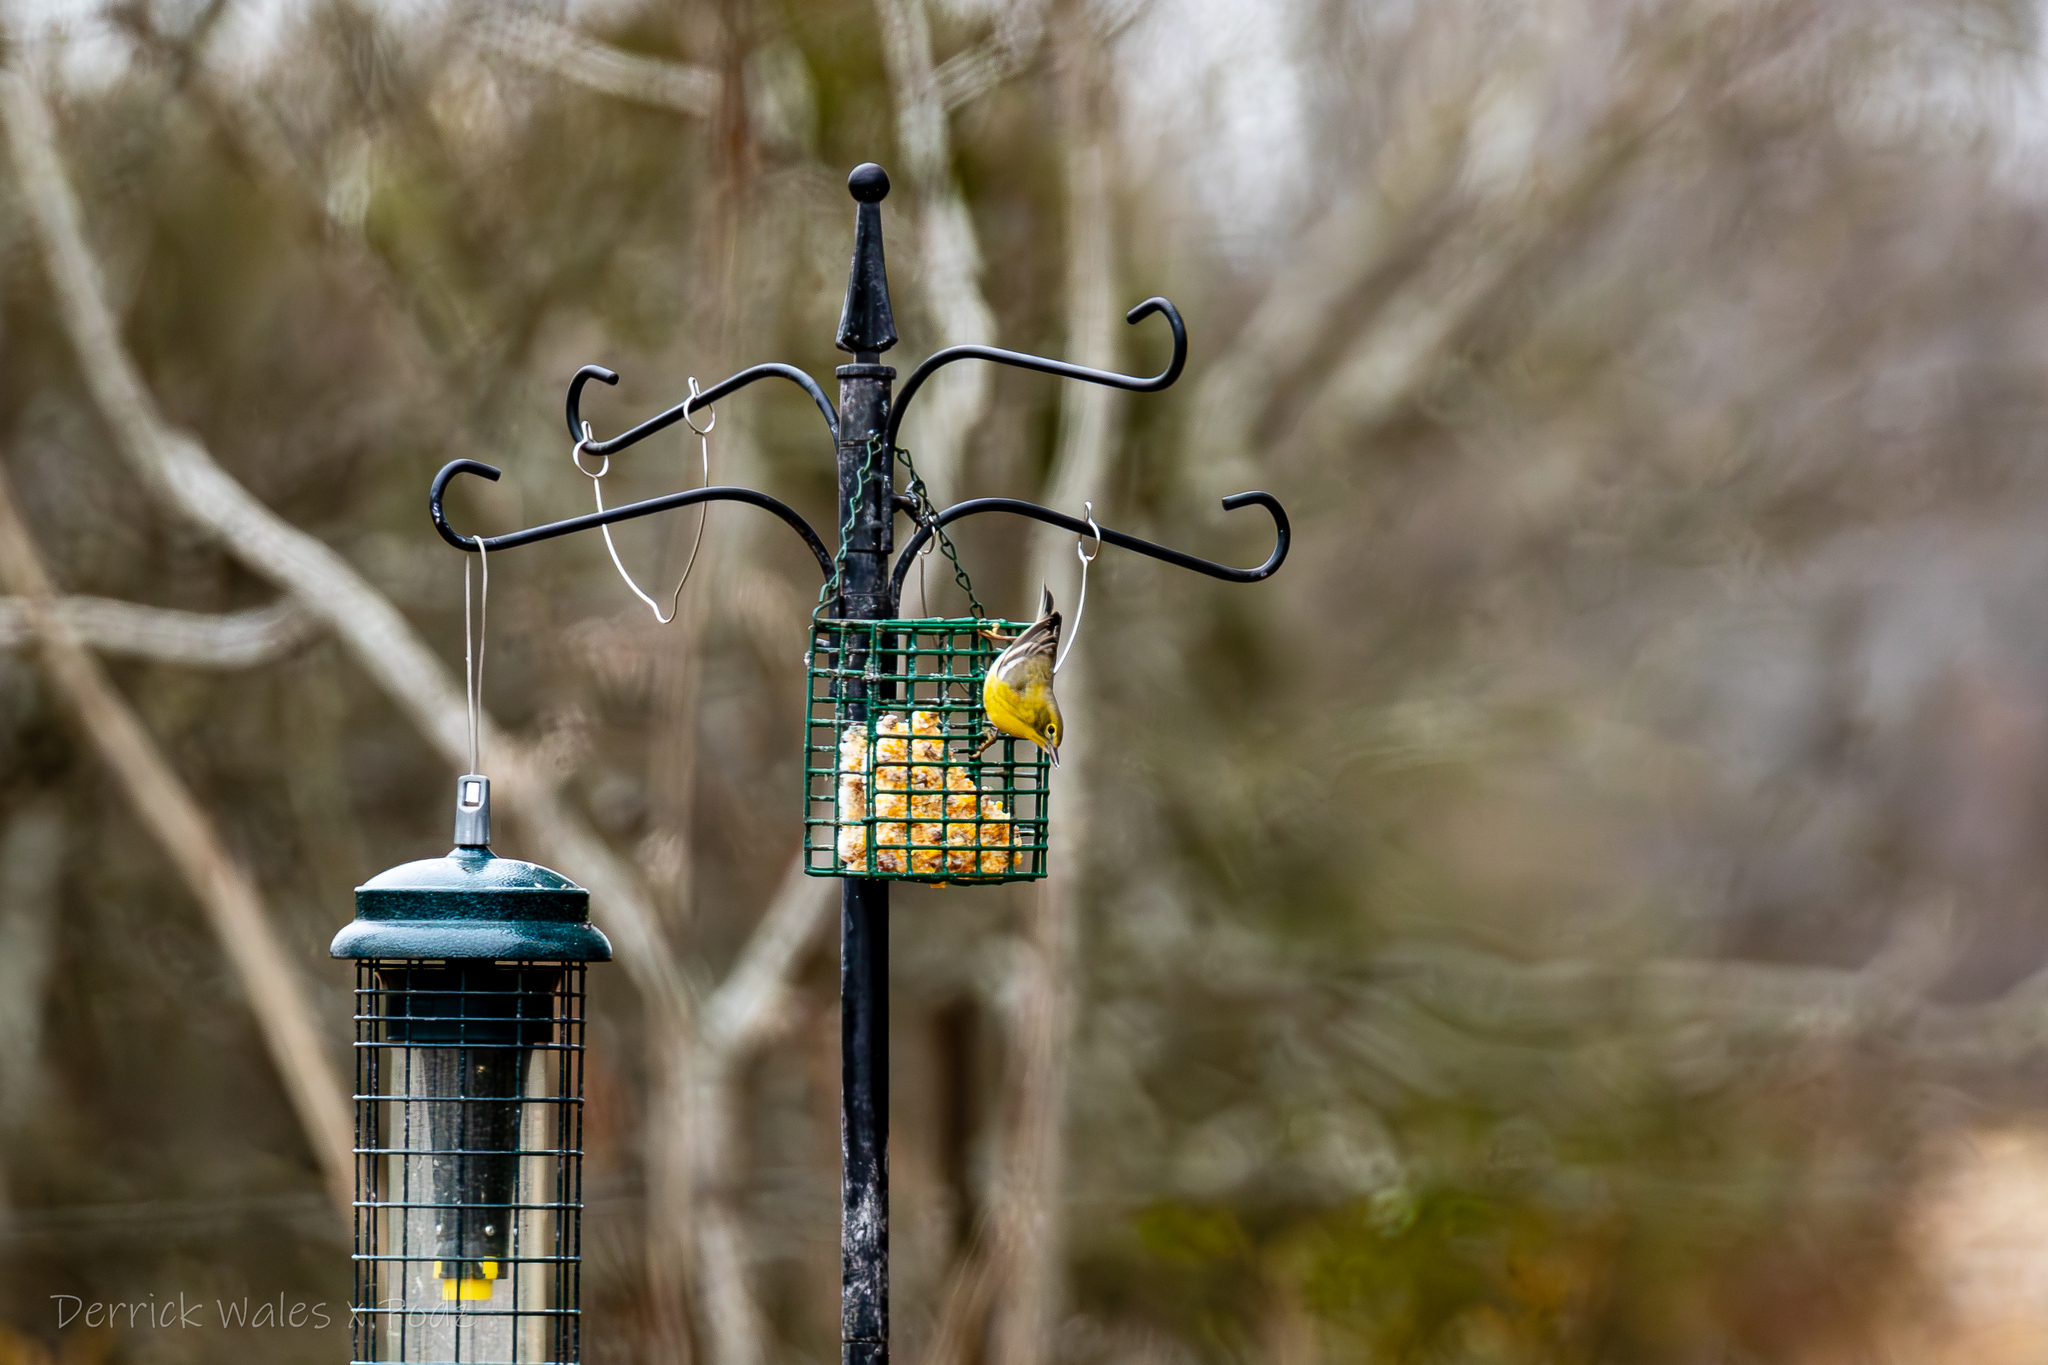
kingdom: Animalia
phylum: Chordata
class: Aves
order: Passeriformes
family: Parulidae
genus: Setophaga
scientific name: Setophaga pinus
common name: Pine warbler
